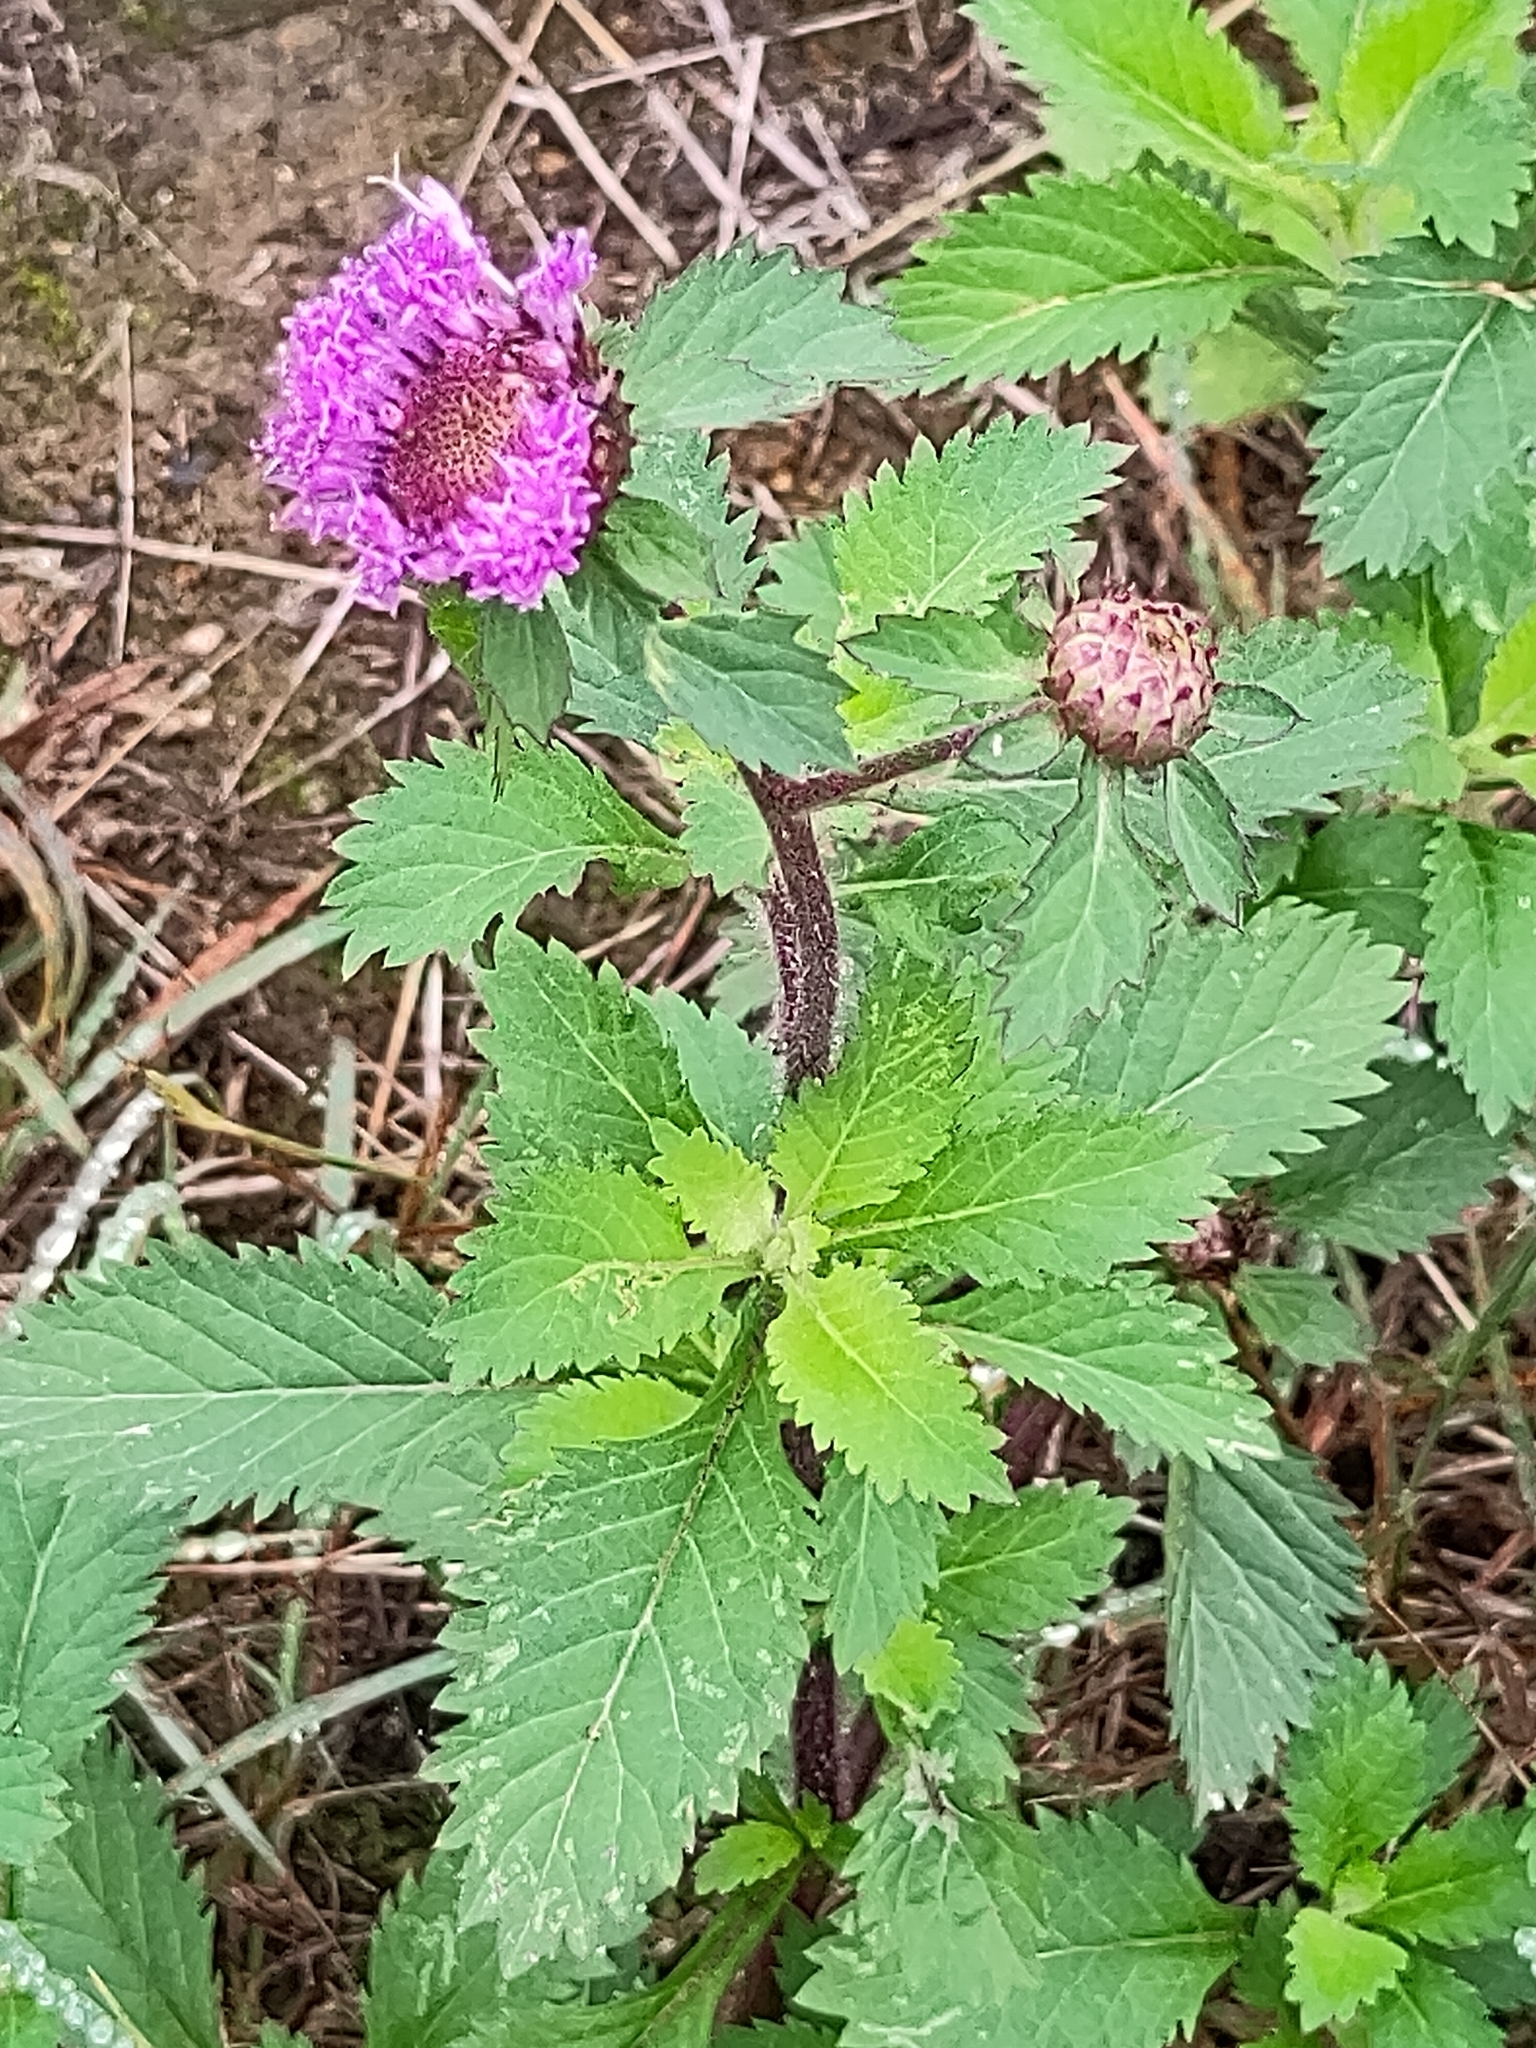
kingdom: Plantae
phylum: Tracheophyta
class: Magnoliopsida
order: Asterales
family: Asteraceae
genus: Centratherum
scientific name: Centratherum punctatum
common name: Larkdaisy
